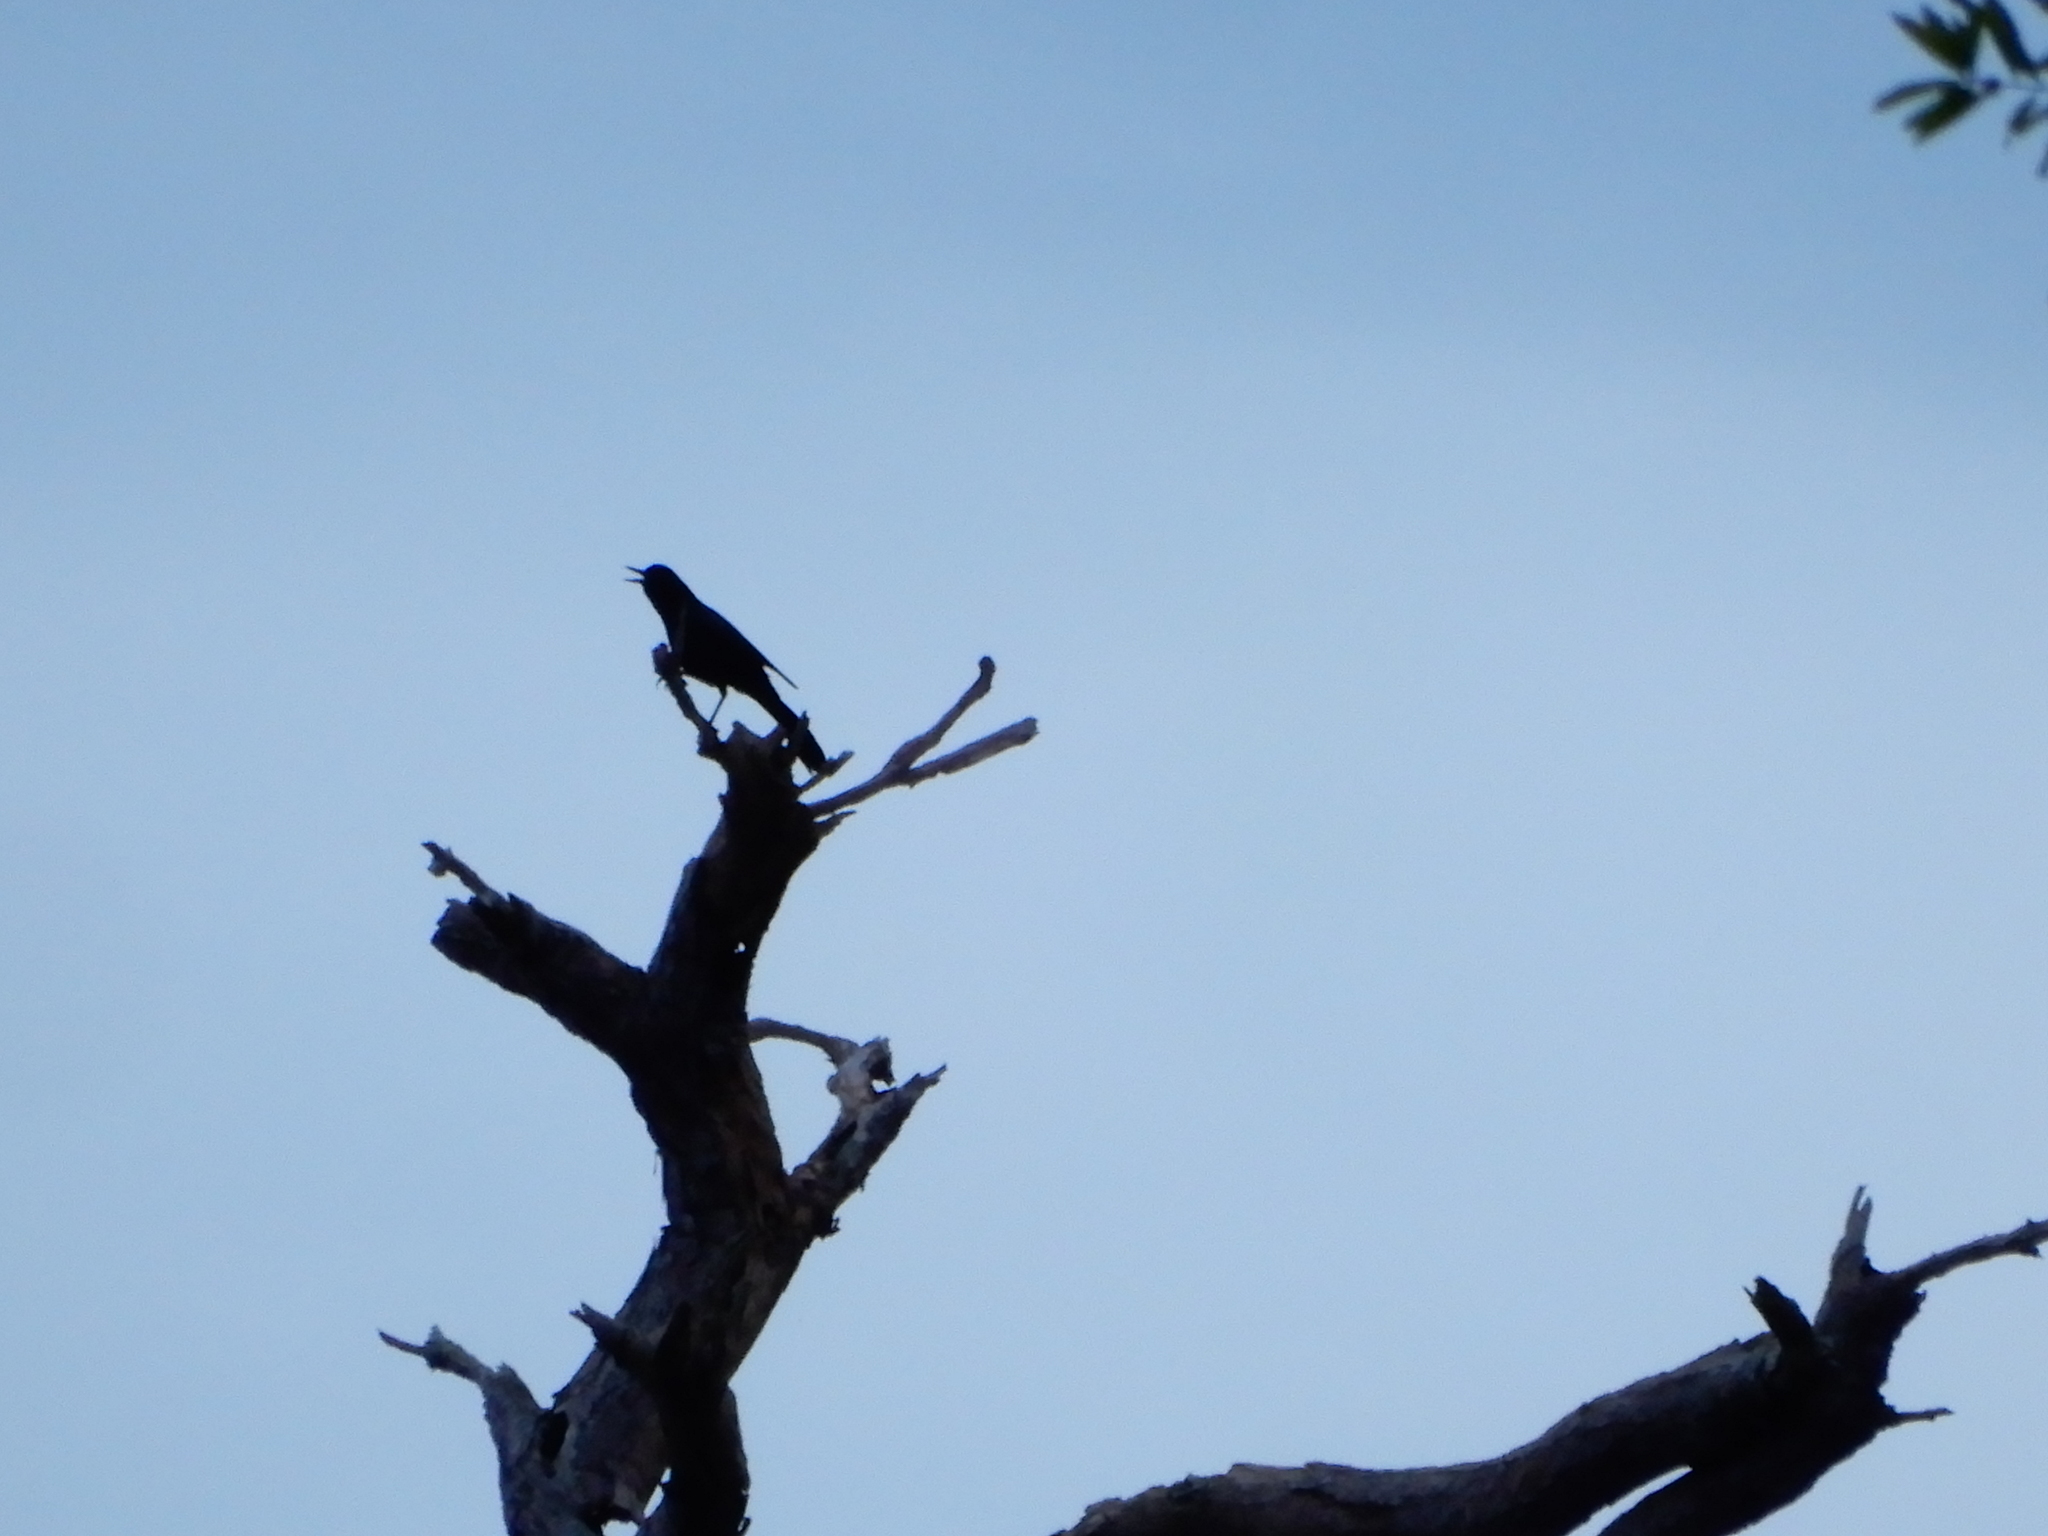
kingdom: Animalia
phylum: Chordata
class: Aves
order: Passeriformes
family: Icteridae
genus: Quiscalus
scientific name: Quiscalus major
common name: Boat-tailed grackle
